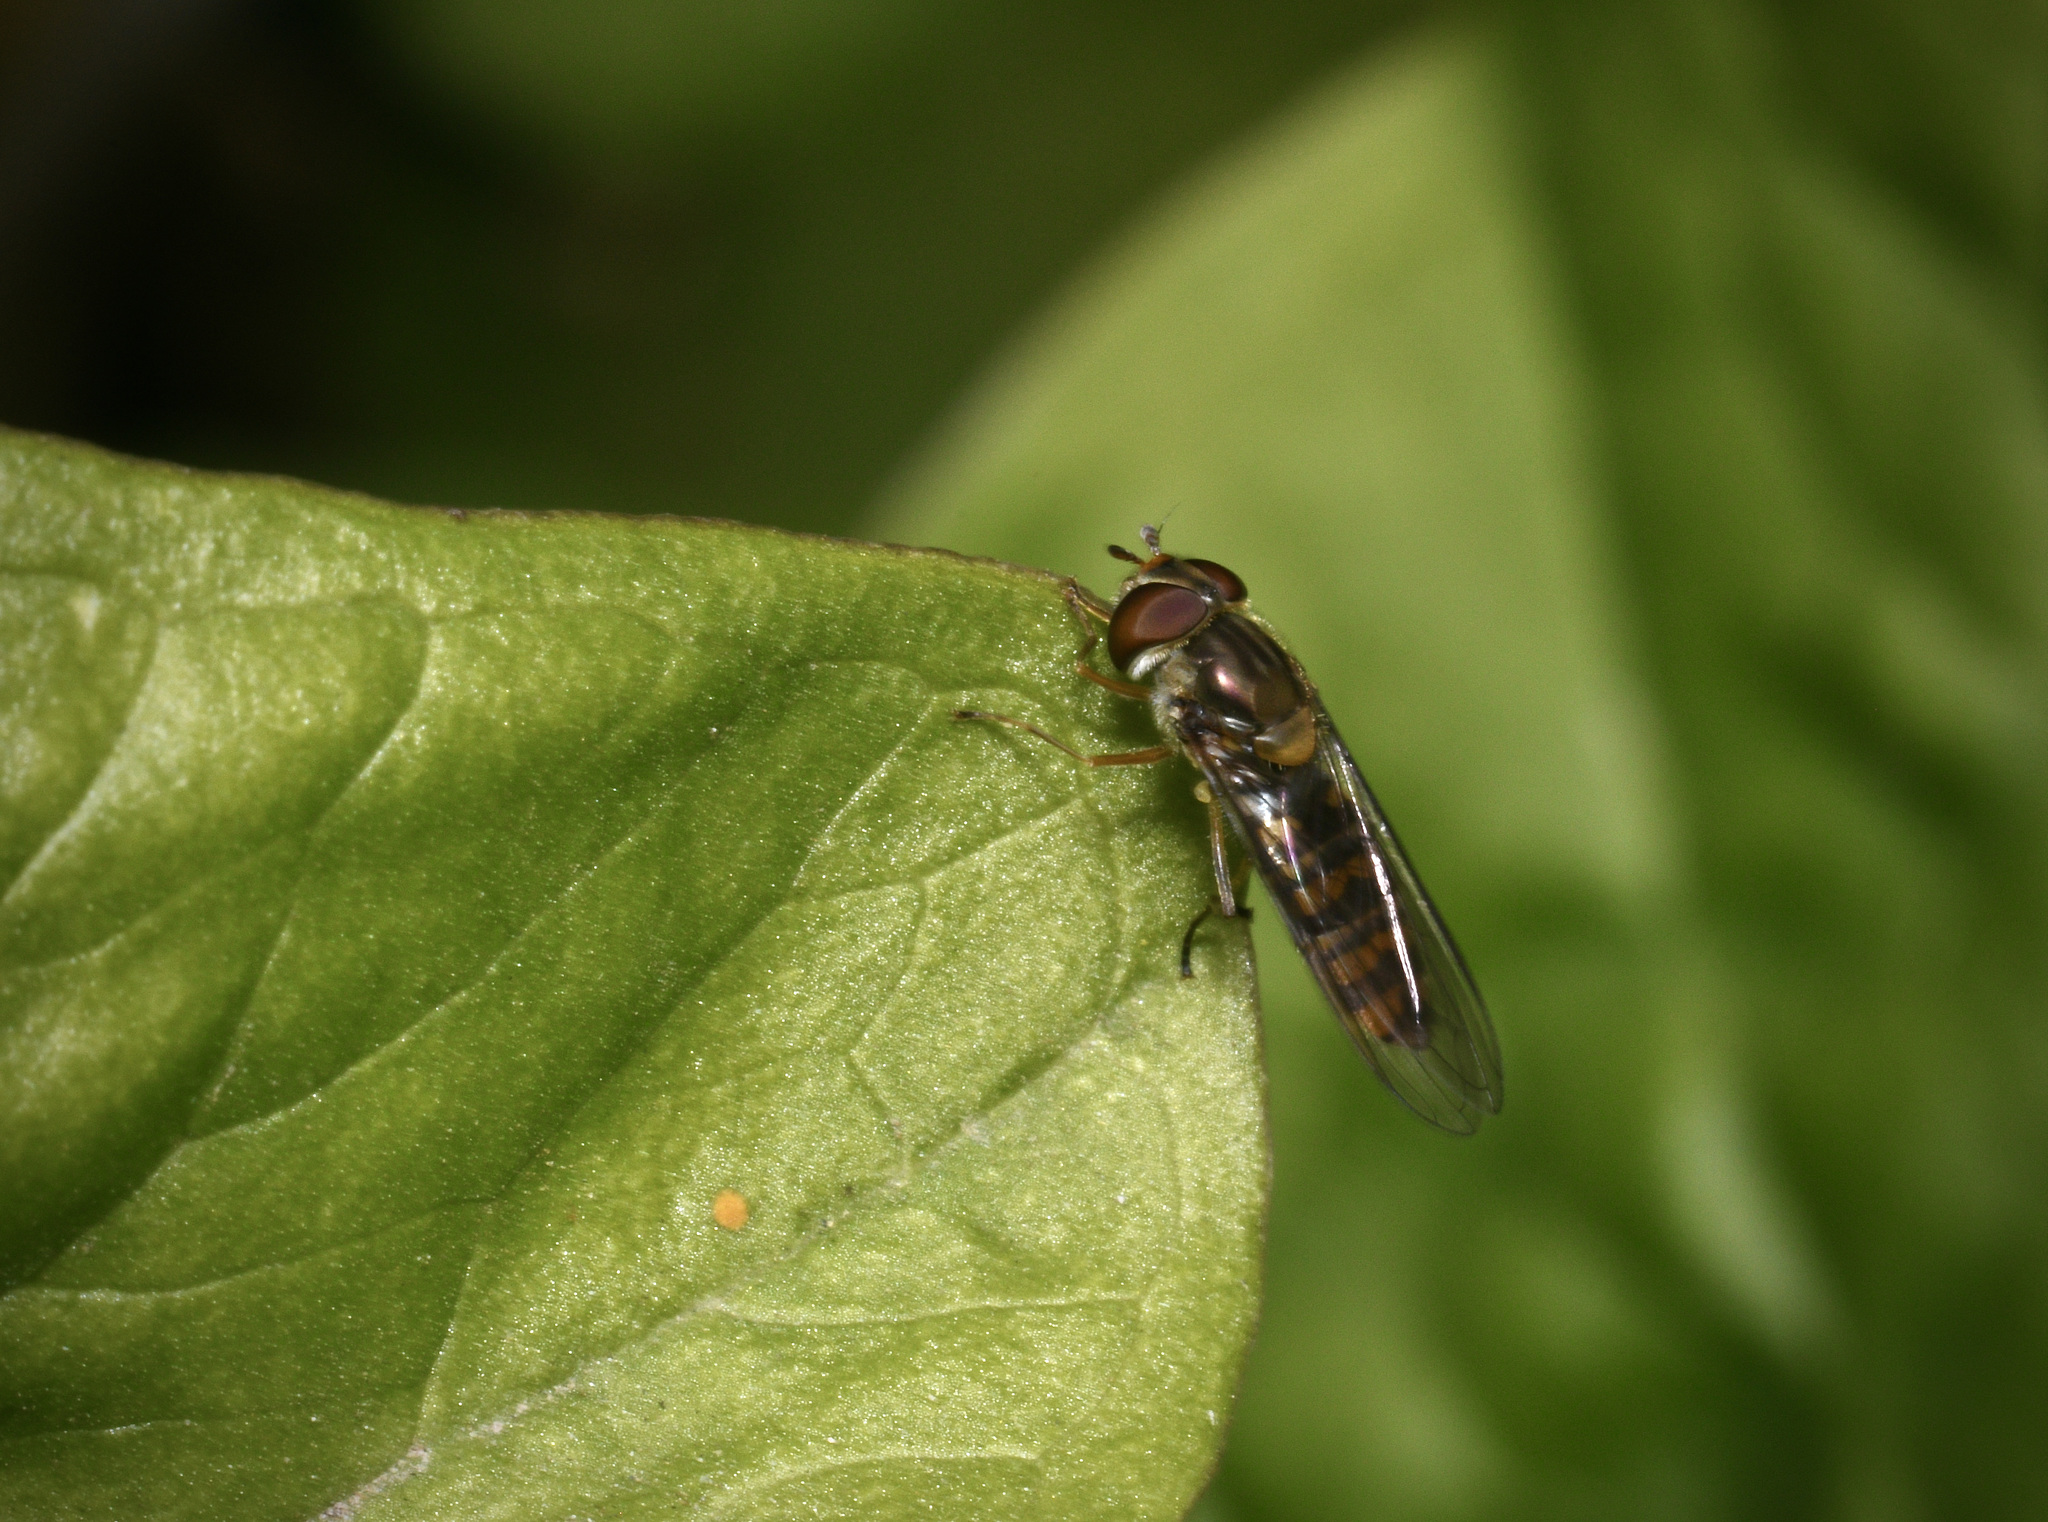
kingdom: Animalia
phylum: Arthropoda
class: Insecta
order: Diptera
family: Syrphidae
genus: Episyrphus
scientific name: Episyrphus balteatus
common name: Marmalade hoverfly
